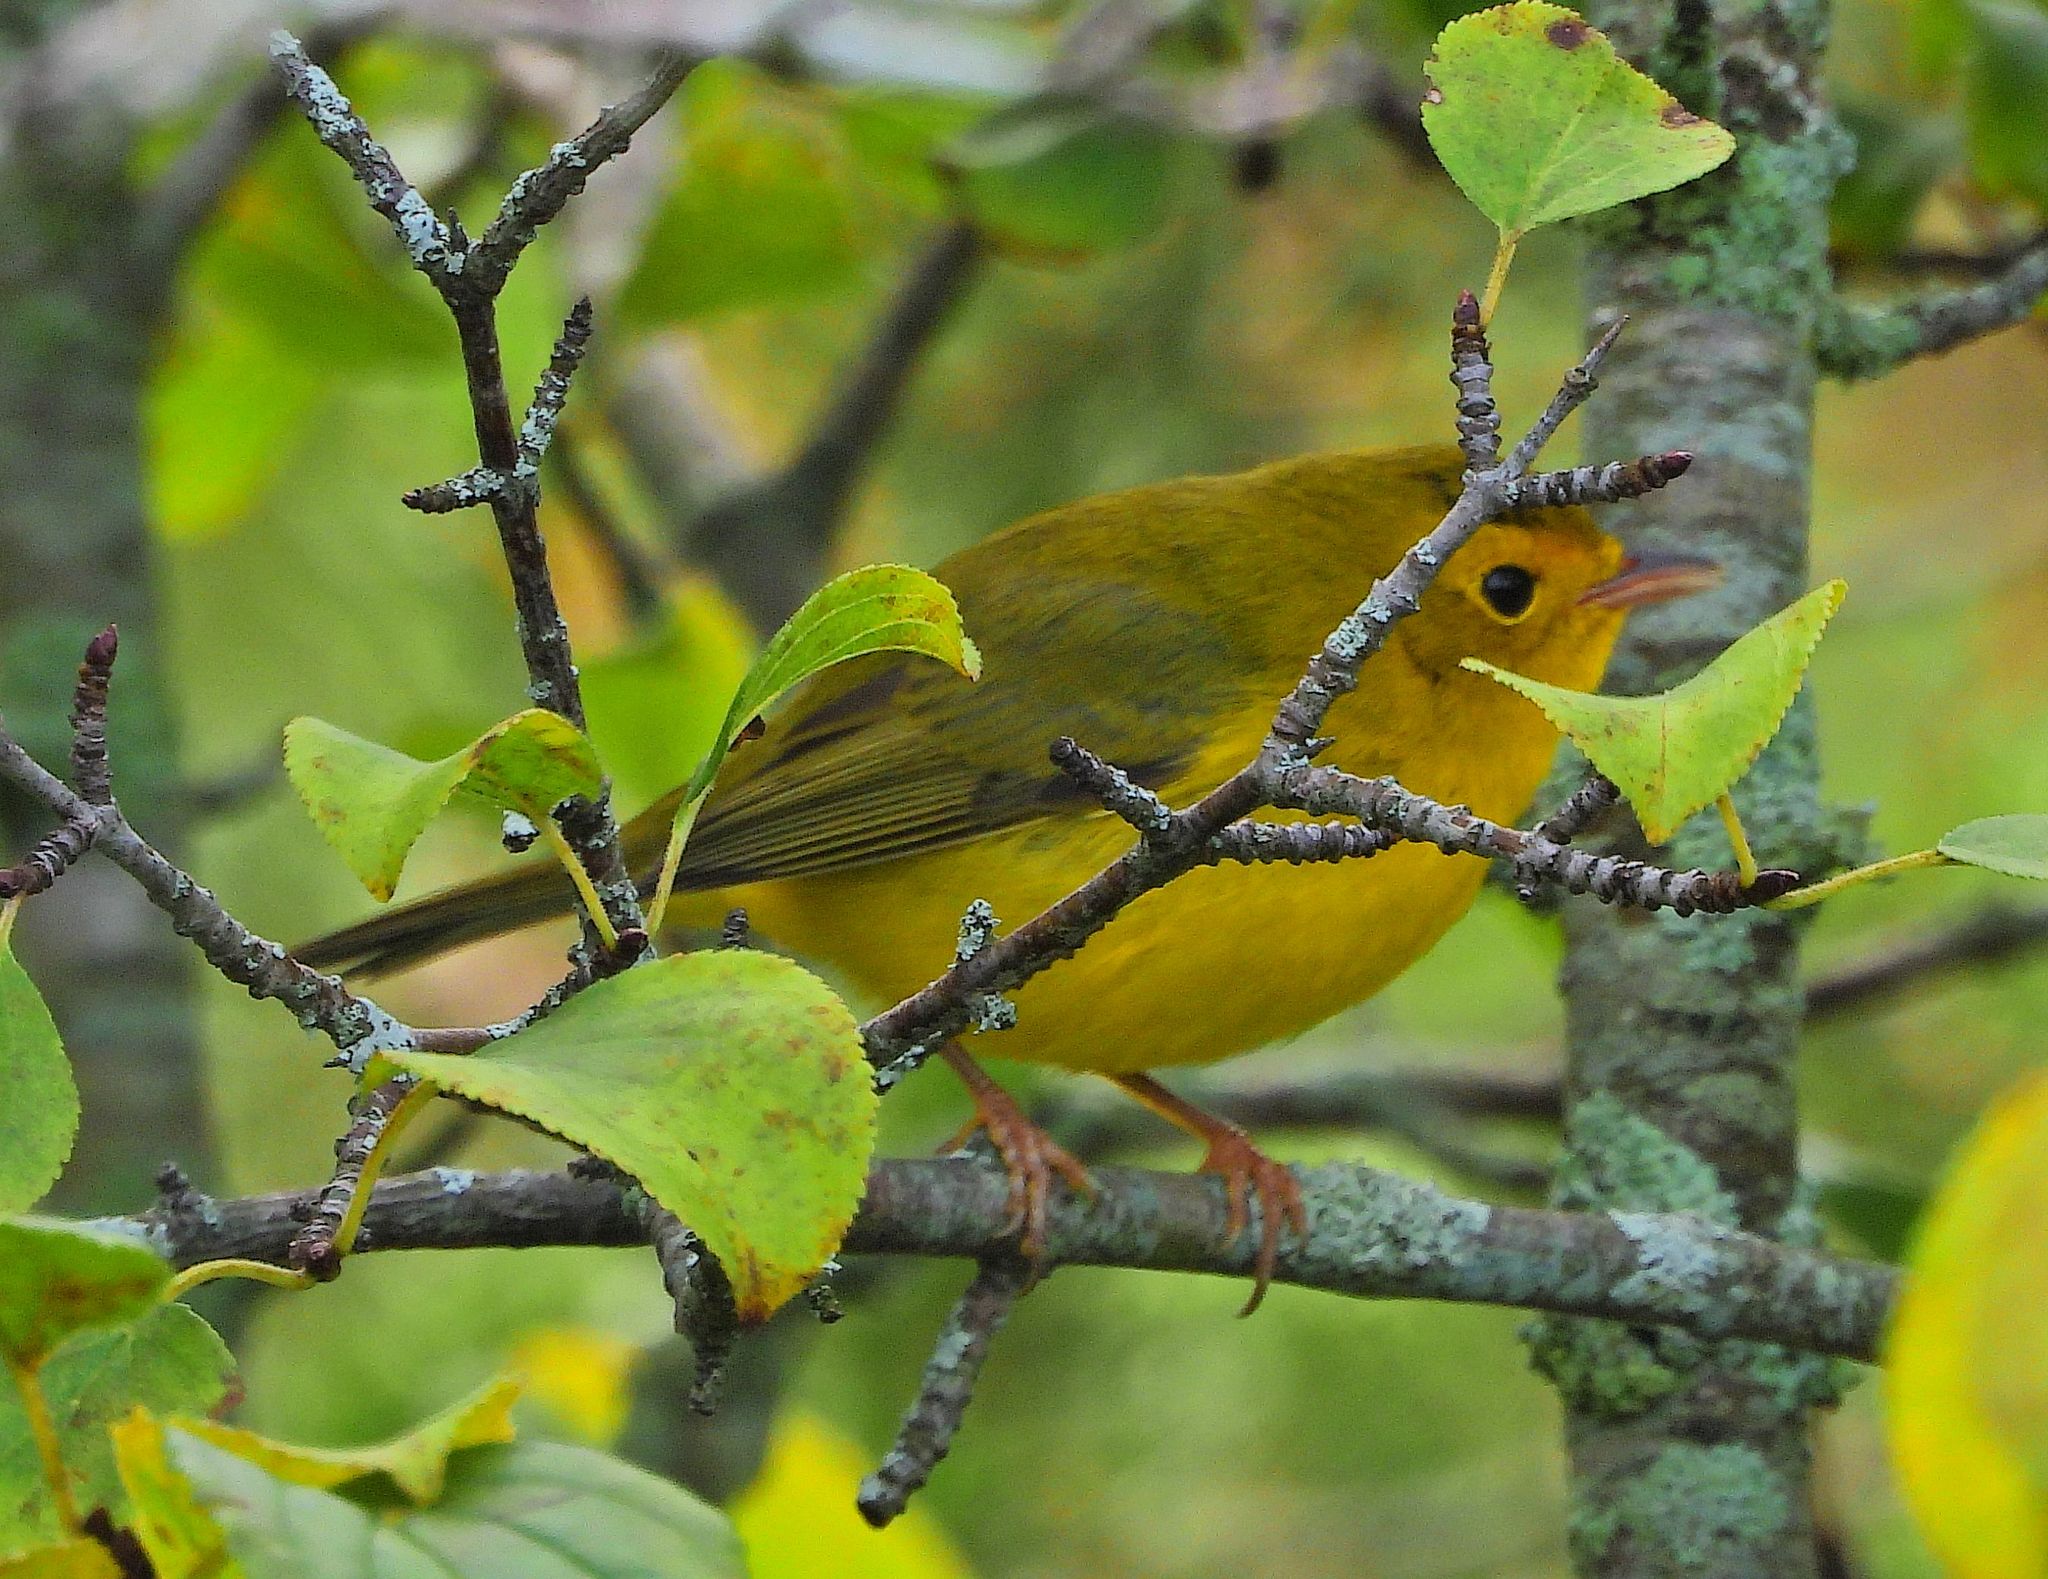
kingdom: Animalia
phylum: Chordata
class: Aves
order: Passeriformes
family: Parulidae
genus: Cardellina
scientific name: Cardellina pusilla
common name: Wilson's warbler
